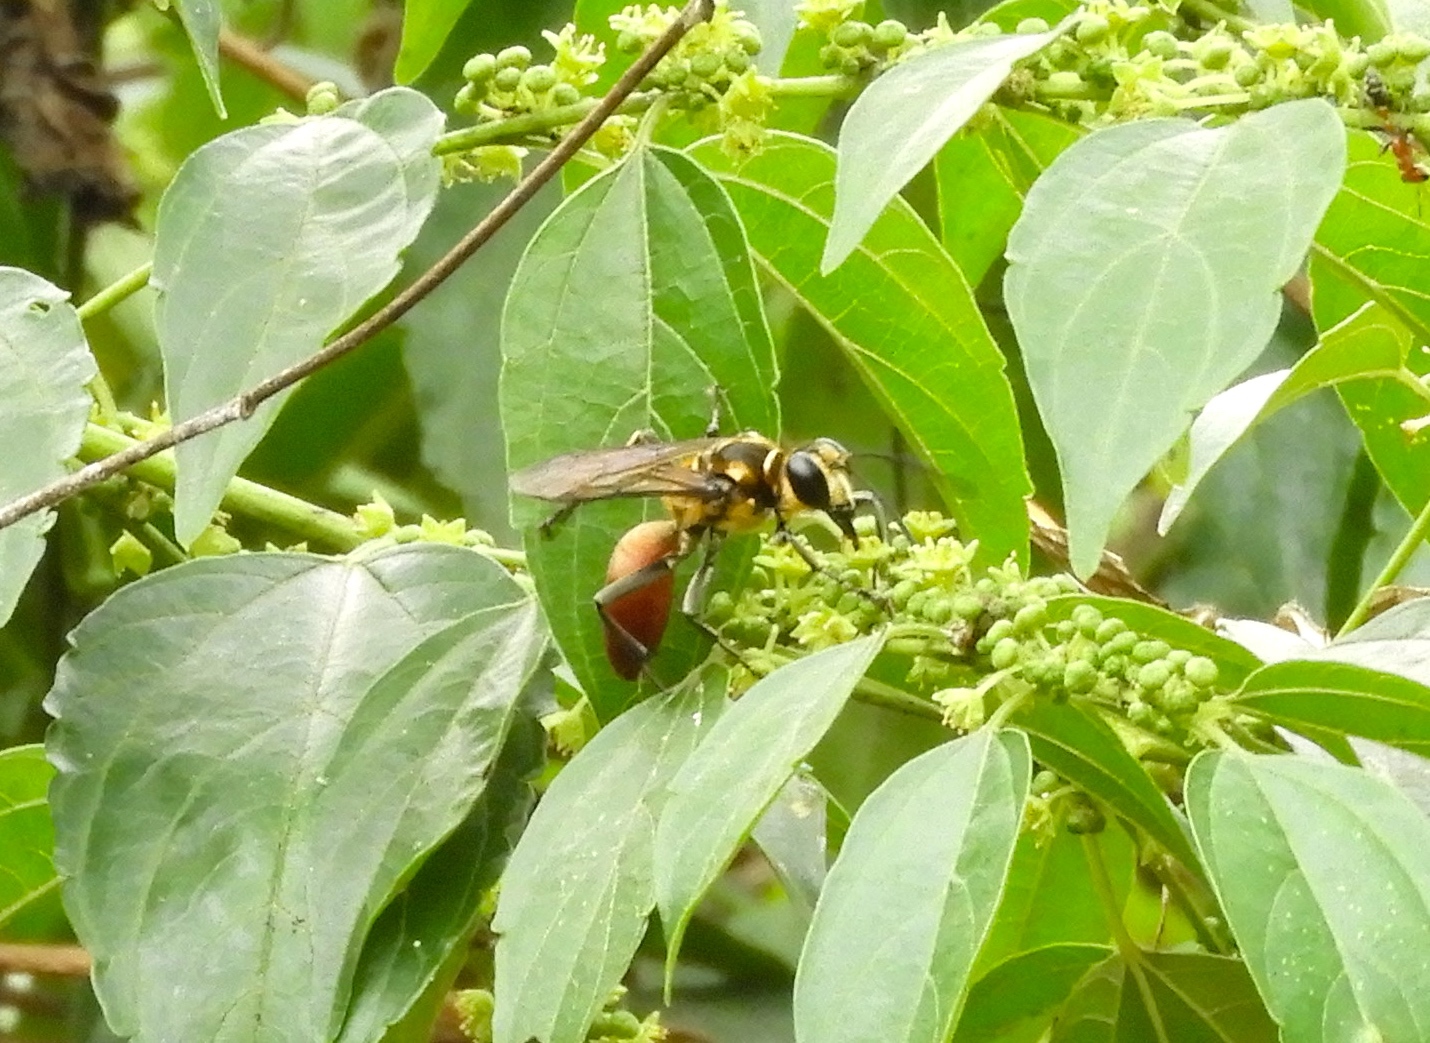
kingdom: Animalia
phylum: Arthropoda
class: Insecta
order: Hymenoptera
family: Sphecidae
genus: Sphex
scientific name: Sphex
